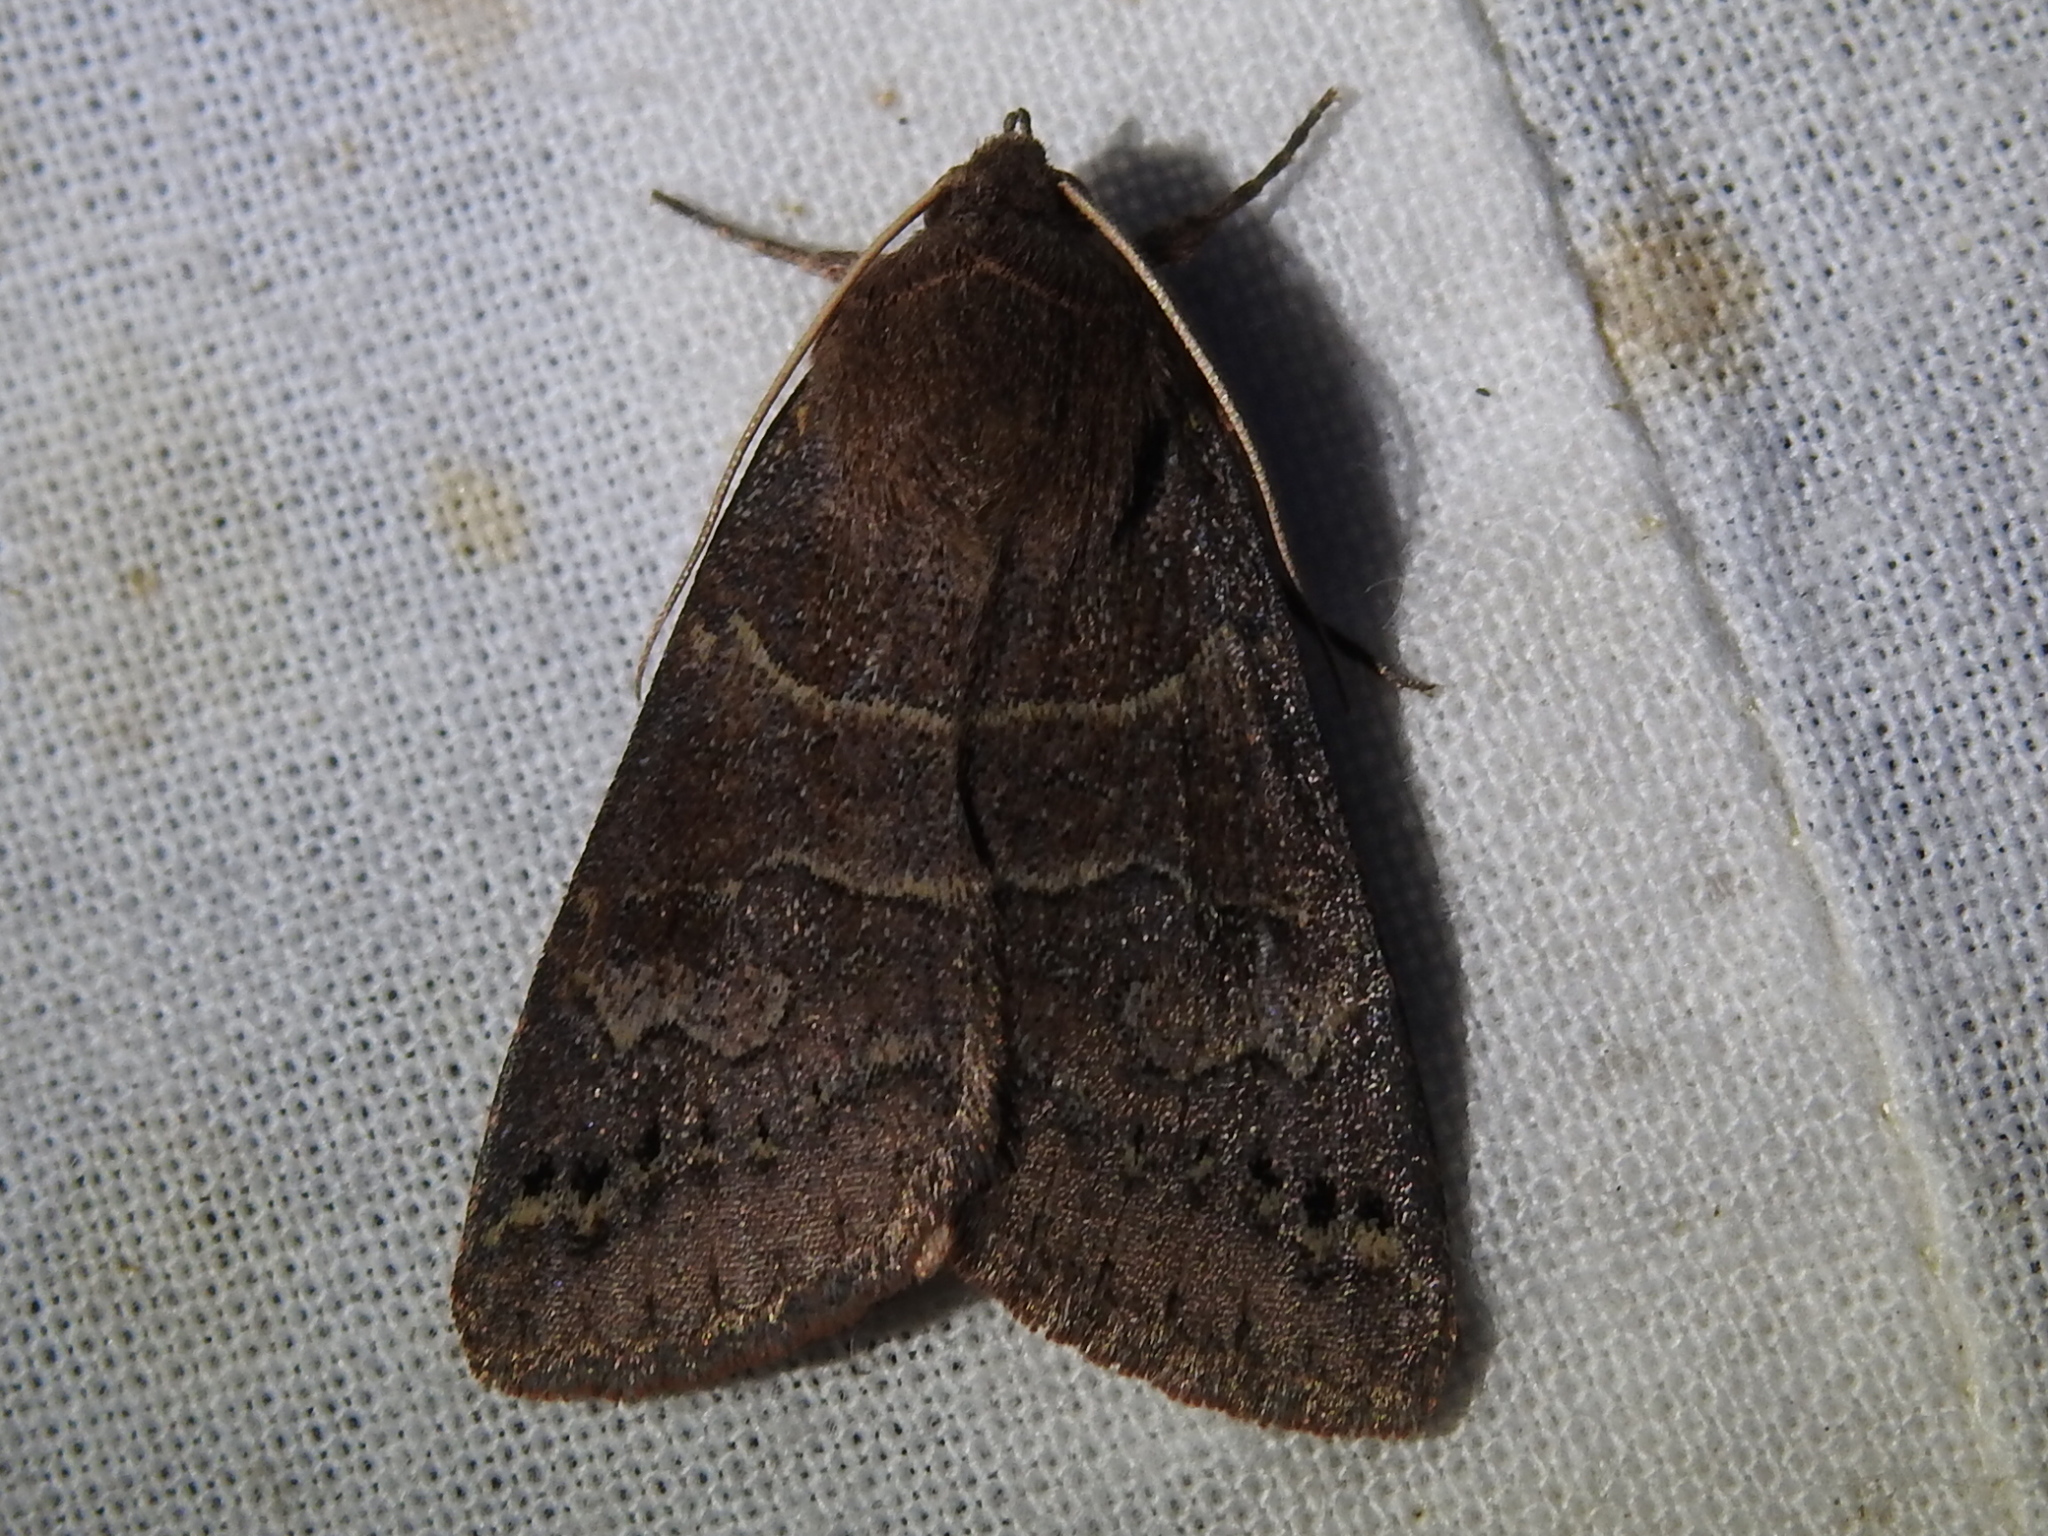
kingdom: Animalia
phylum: Arthropoda
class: Insecta
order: Lepidoptera
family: Erebidae
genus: Cissusa
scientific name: Cissusa spadix
